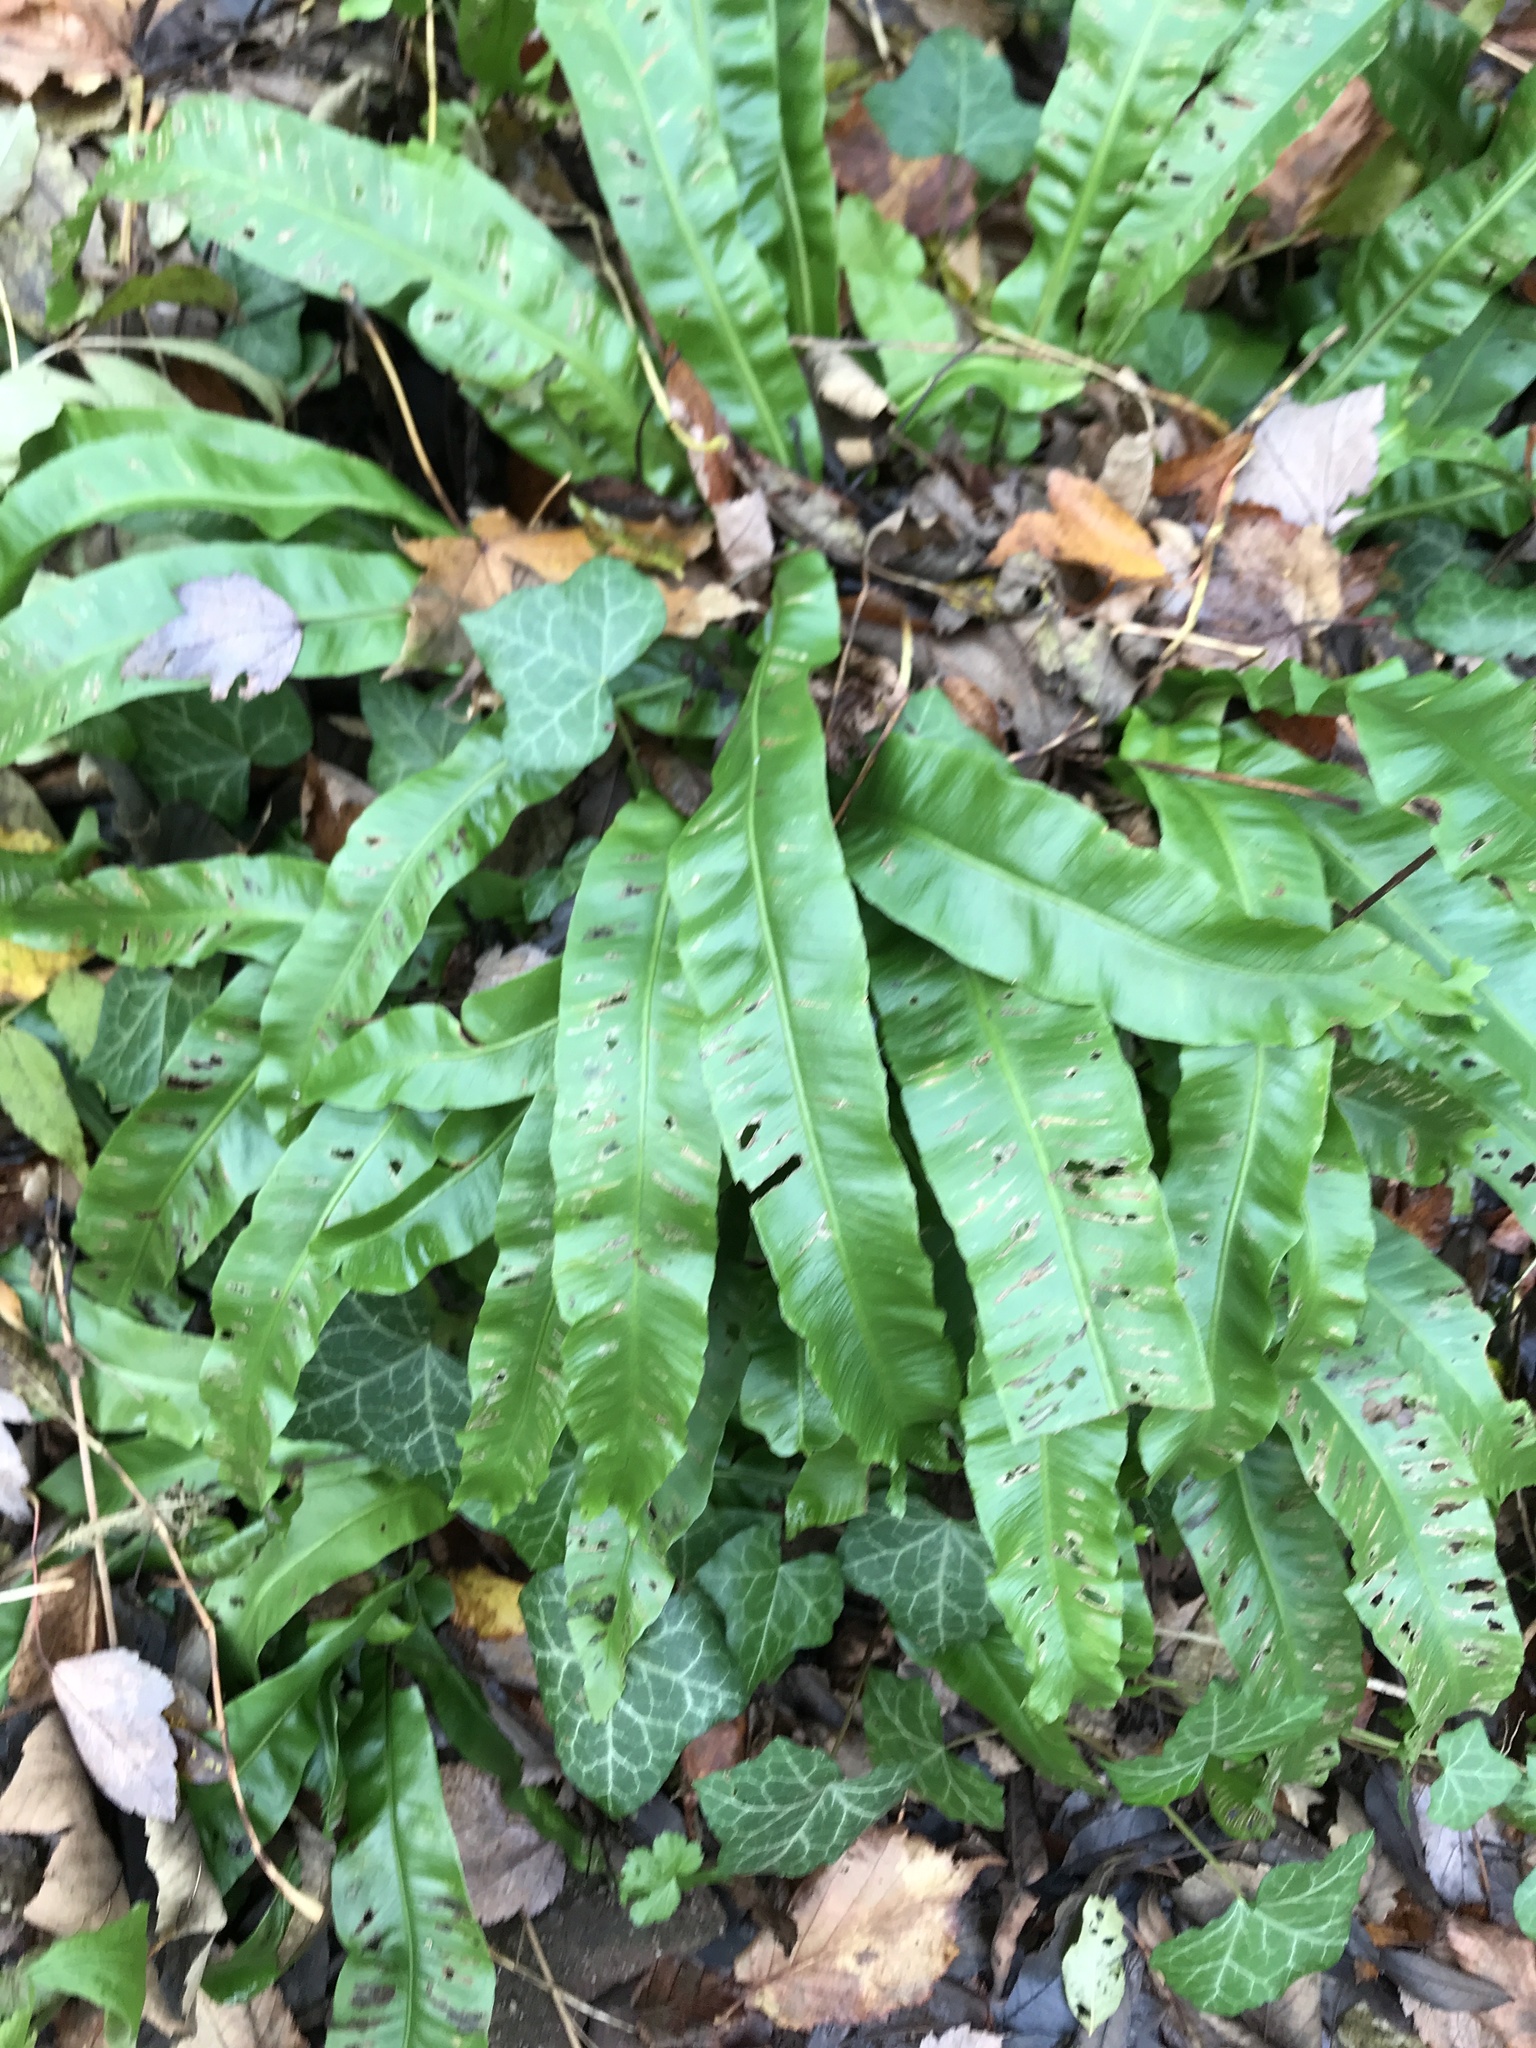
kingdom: Plantae
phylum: Tracheophyta
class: Polypodiopsida
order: Polypodiales
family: Aspleniaceae
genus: Asplenium
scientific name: Asplenium scolopendrium
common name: Hart's-tongue fern
